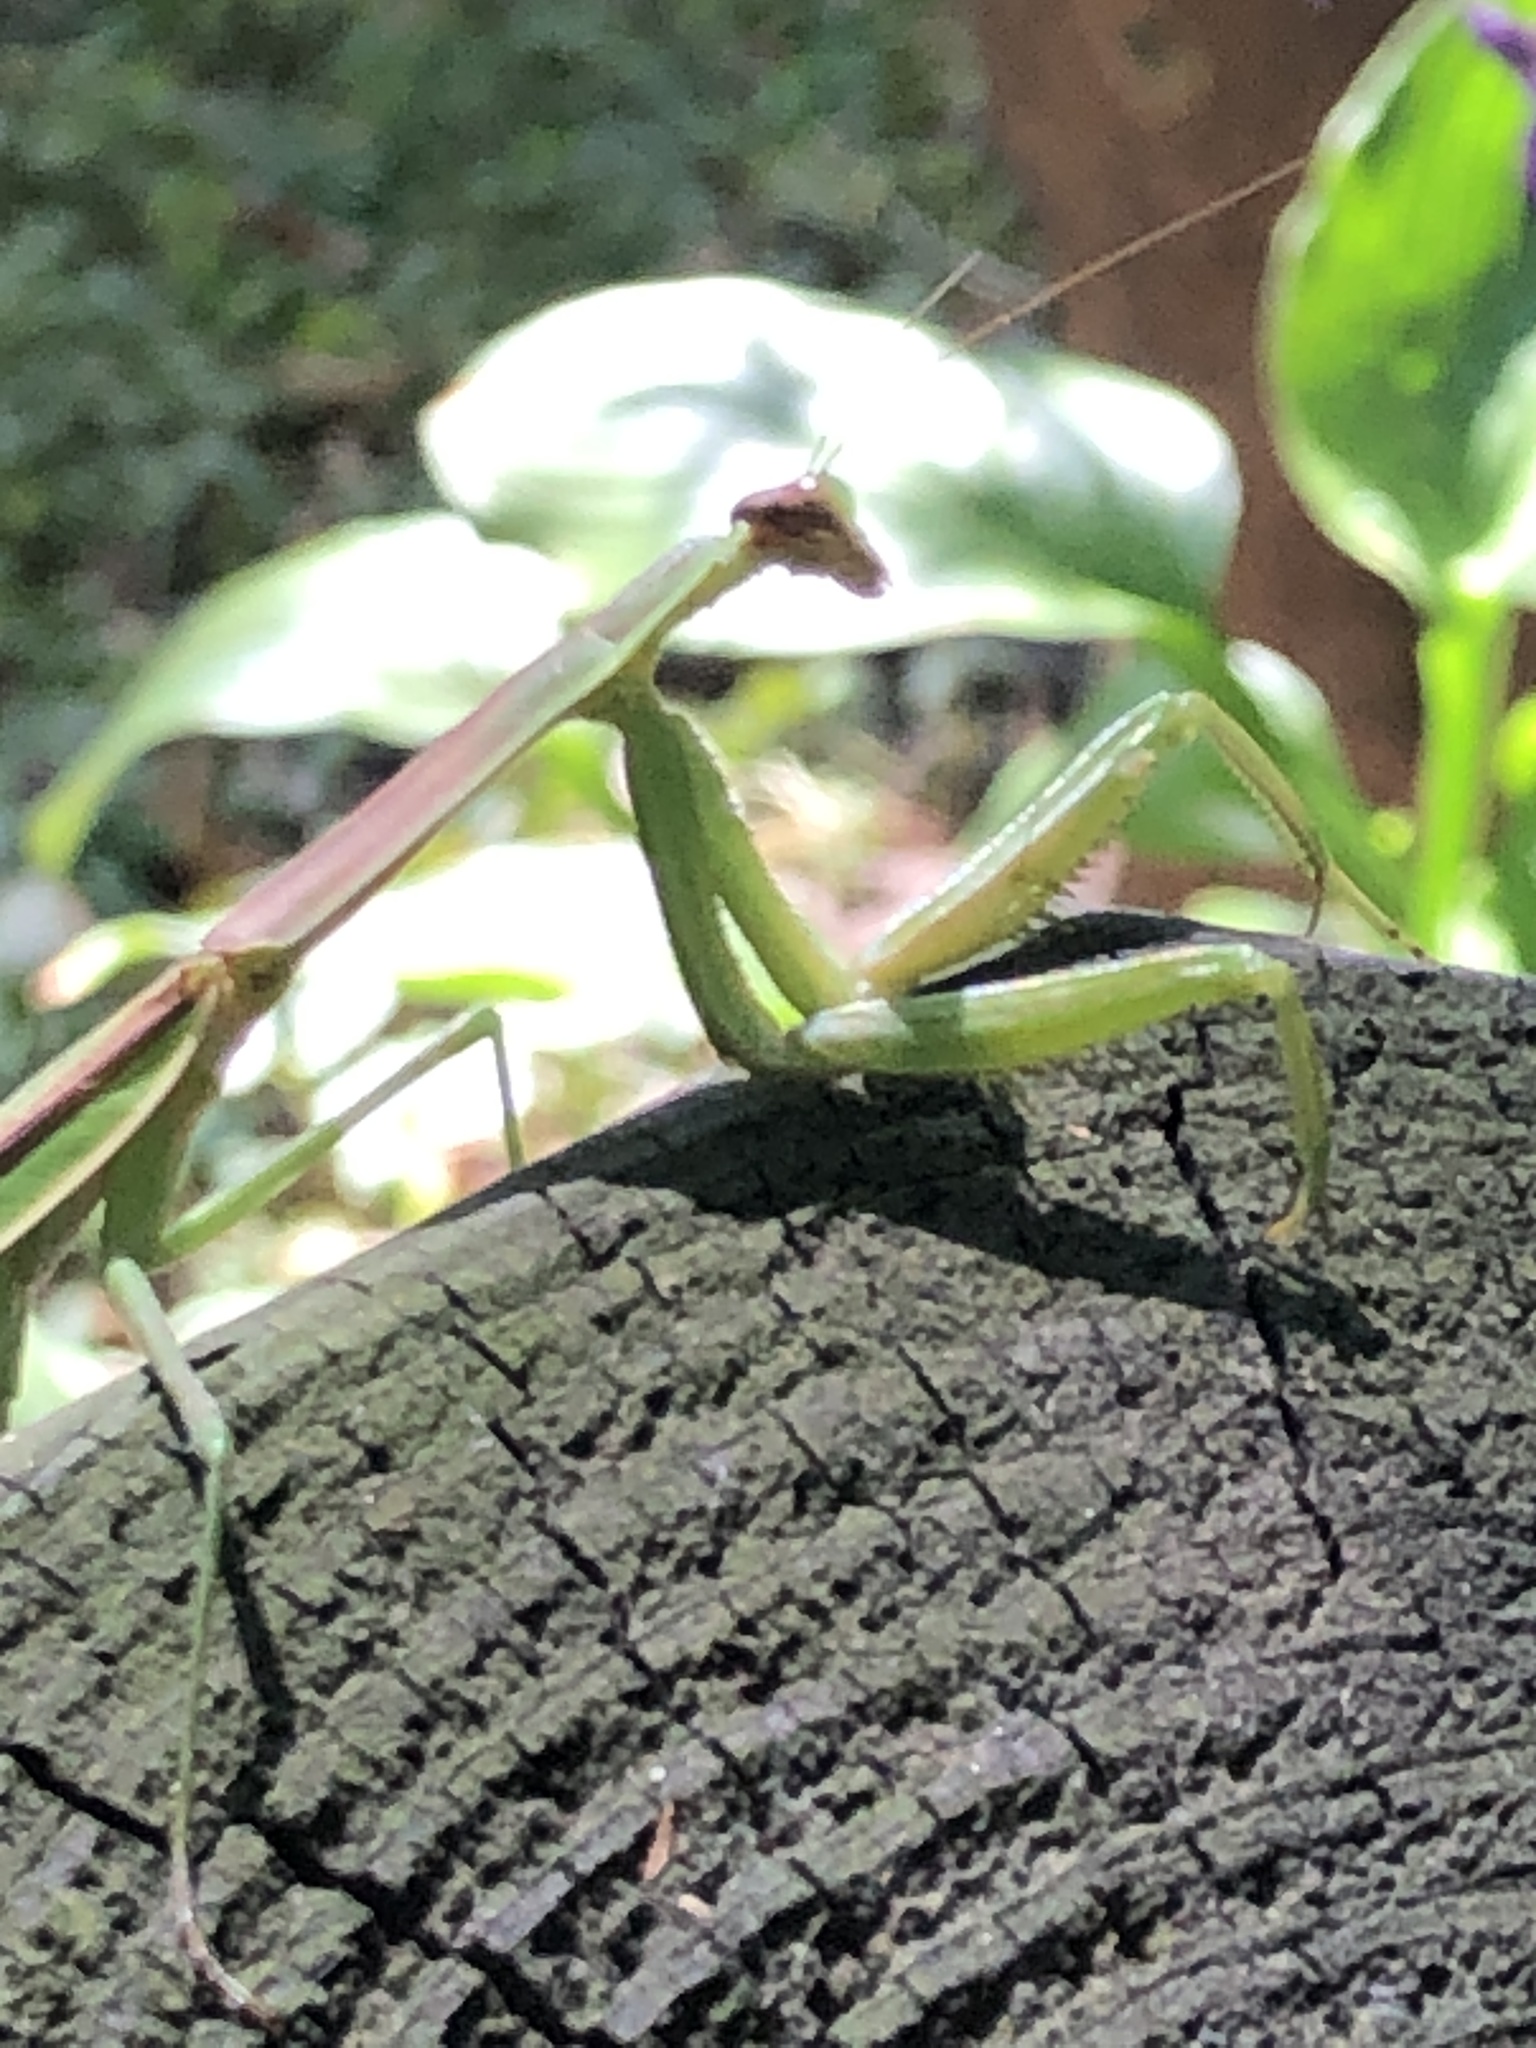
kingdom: Animalia
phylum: Arthropoda
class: Insecta
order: Mantodea
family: Mantidae
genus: Tenodera
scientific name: Tenodera angustipennis
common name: Asian mantis
